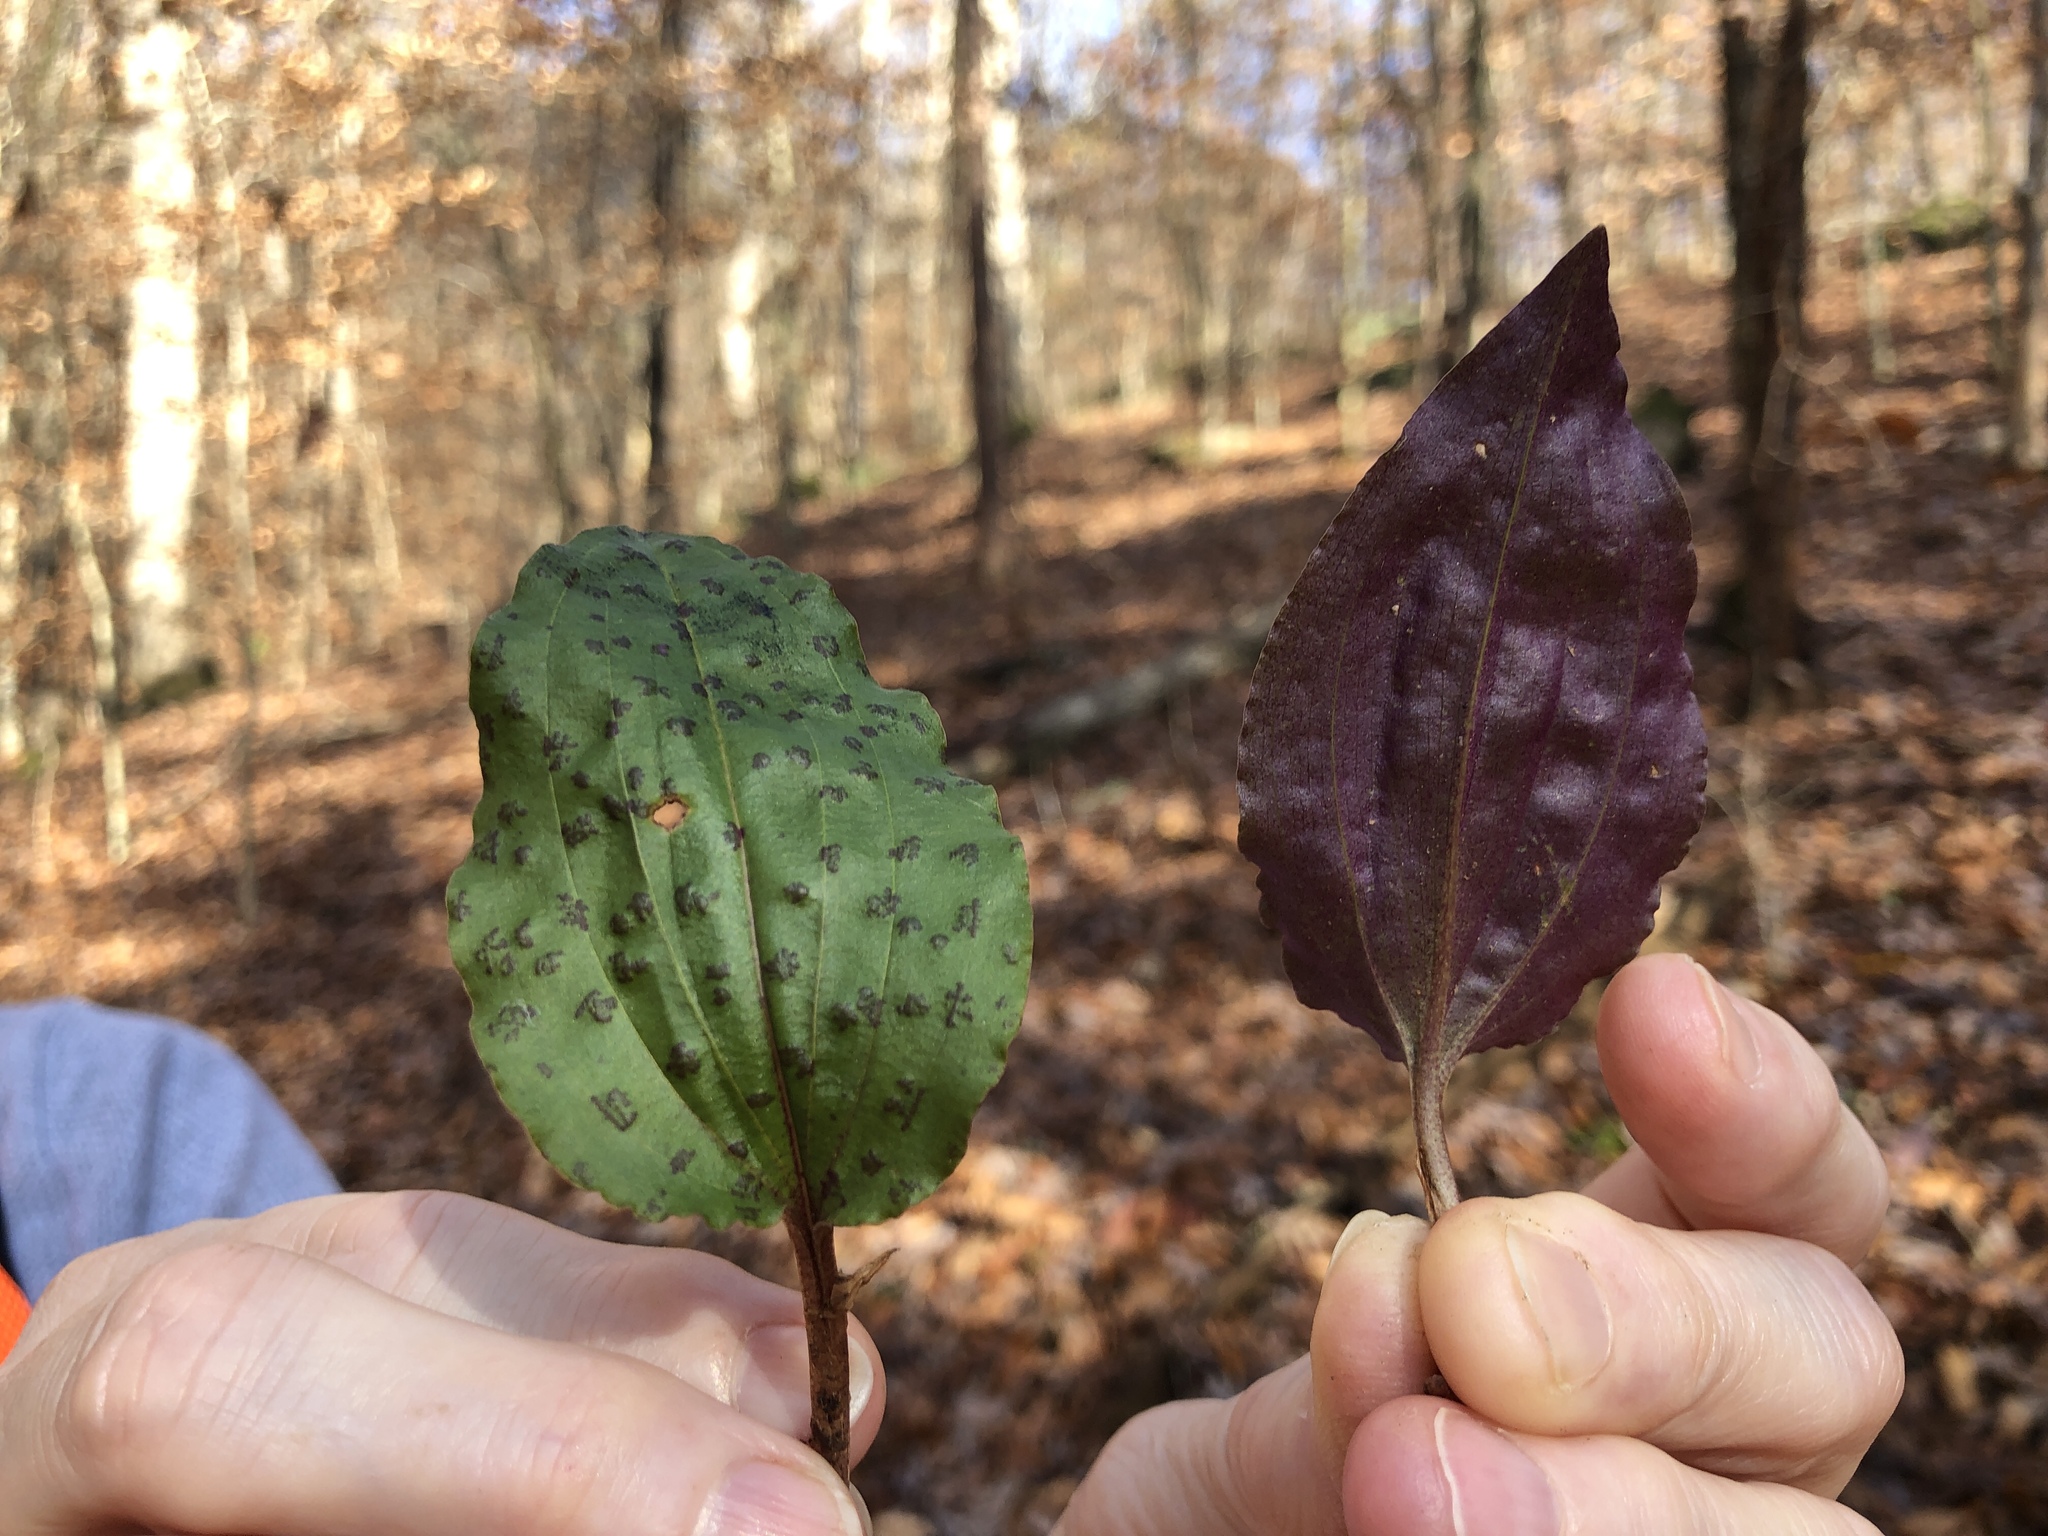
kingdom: Plantae
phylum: Tracheophyta
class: Liliopsida
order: Asparagales
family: Orchidaceae
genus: Tipularia
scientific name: Tipularia discolor
